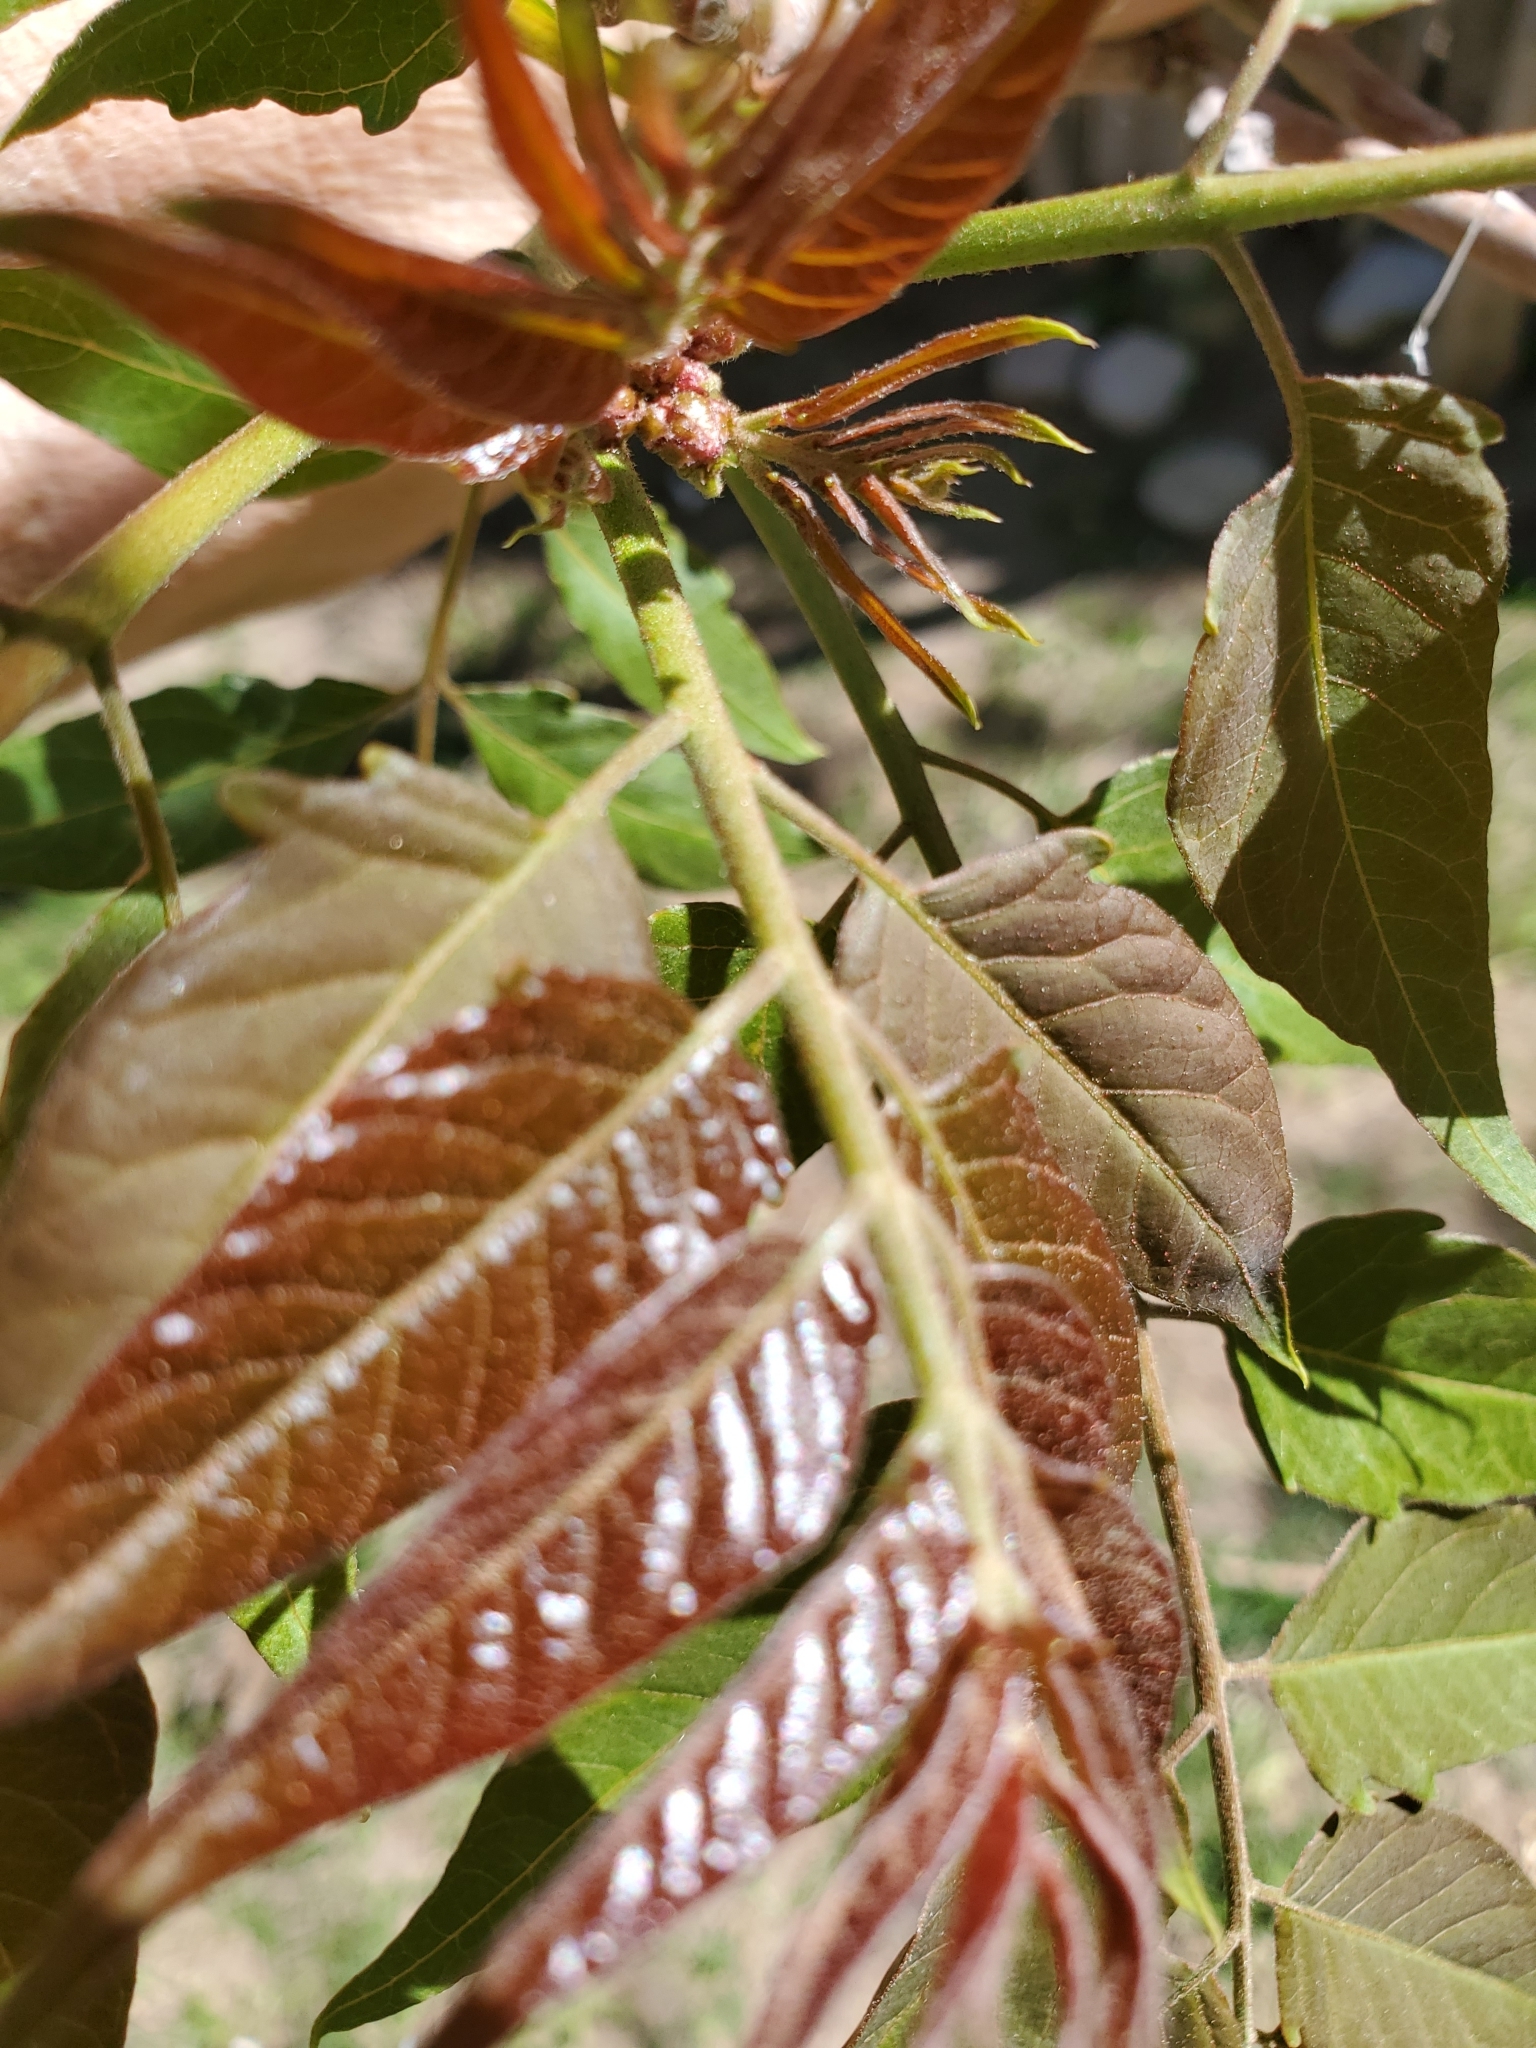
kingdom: Plantae
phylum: Tracheophyta
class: Magnoliopsida
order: Sapindales
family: Simaroubaceae
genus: Ailanthus
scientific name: Ailanthus altissima
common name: Tree-of-heaven
